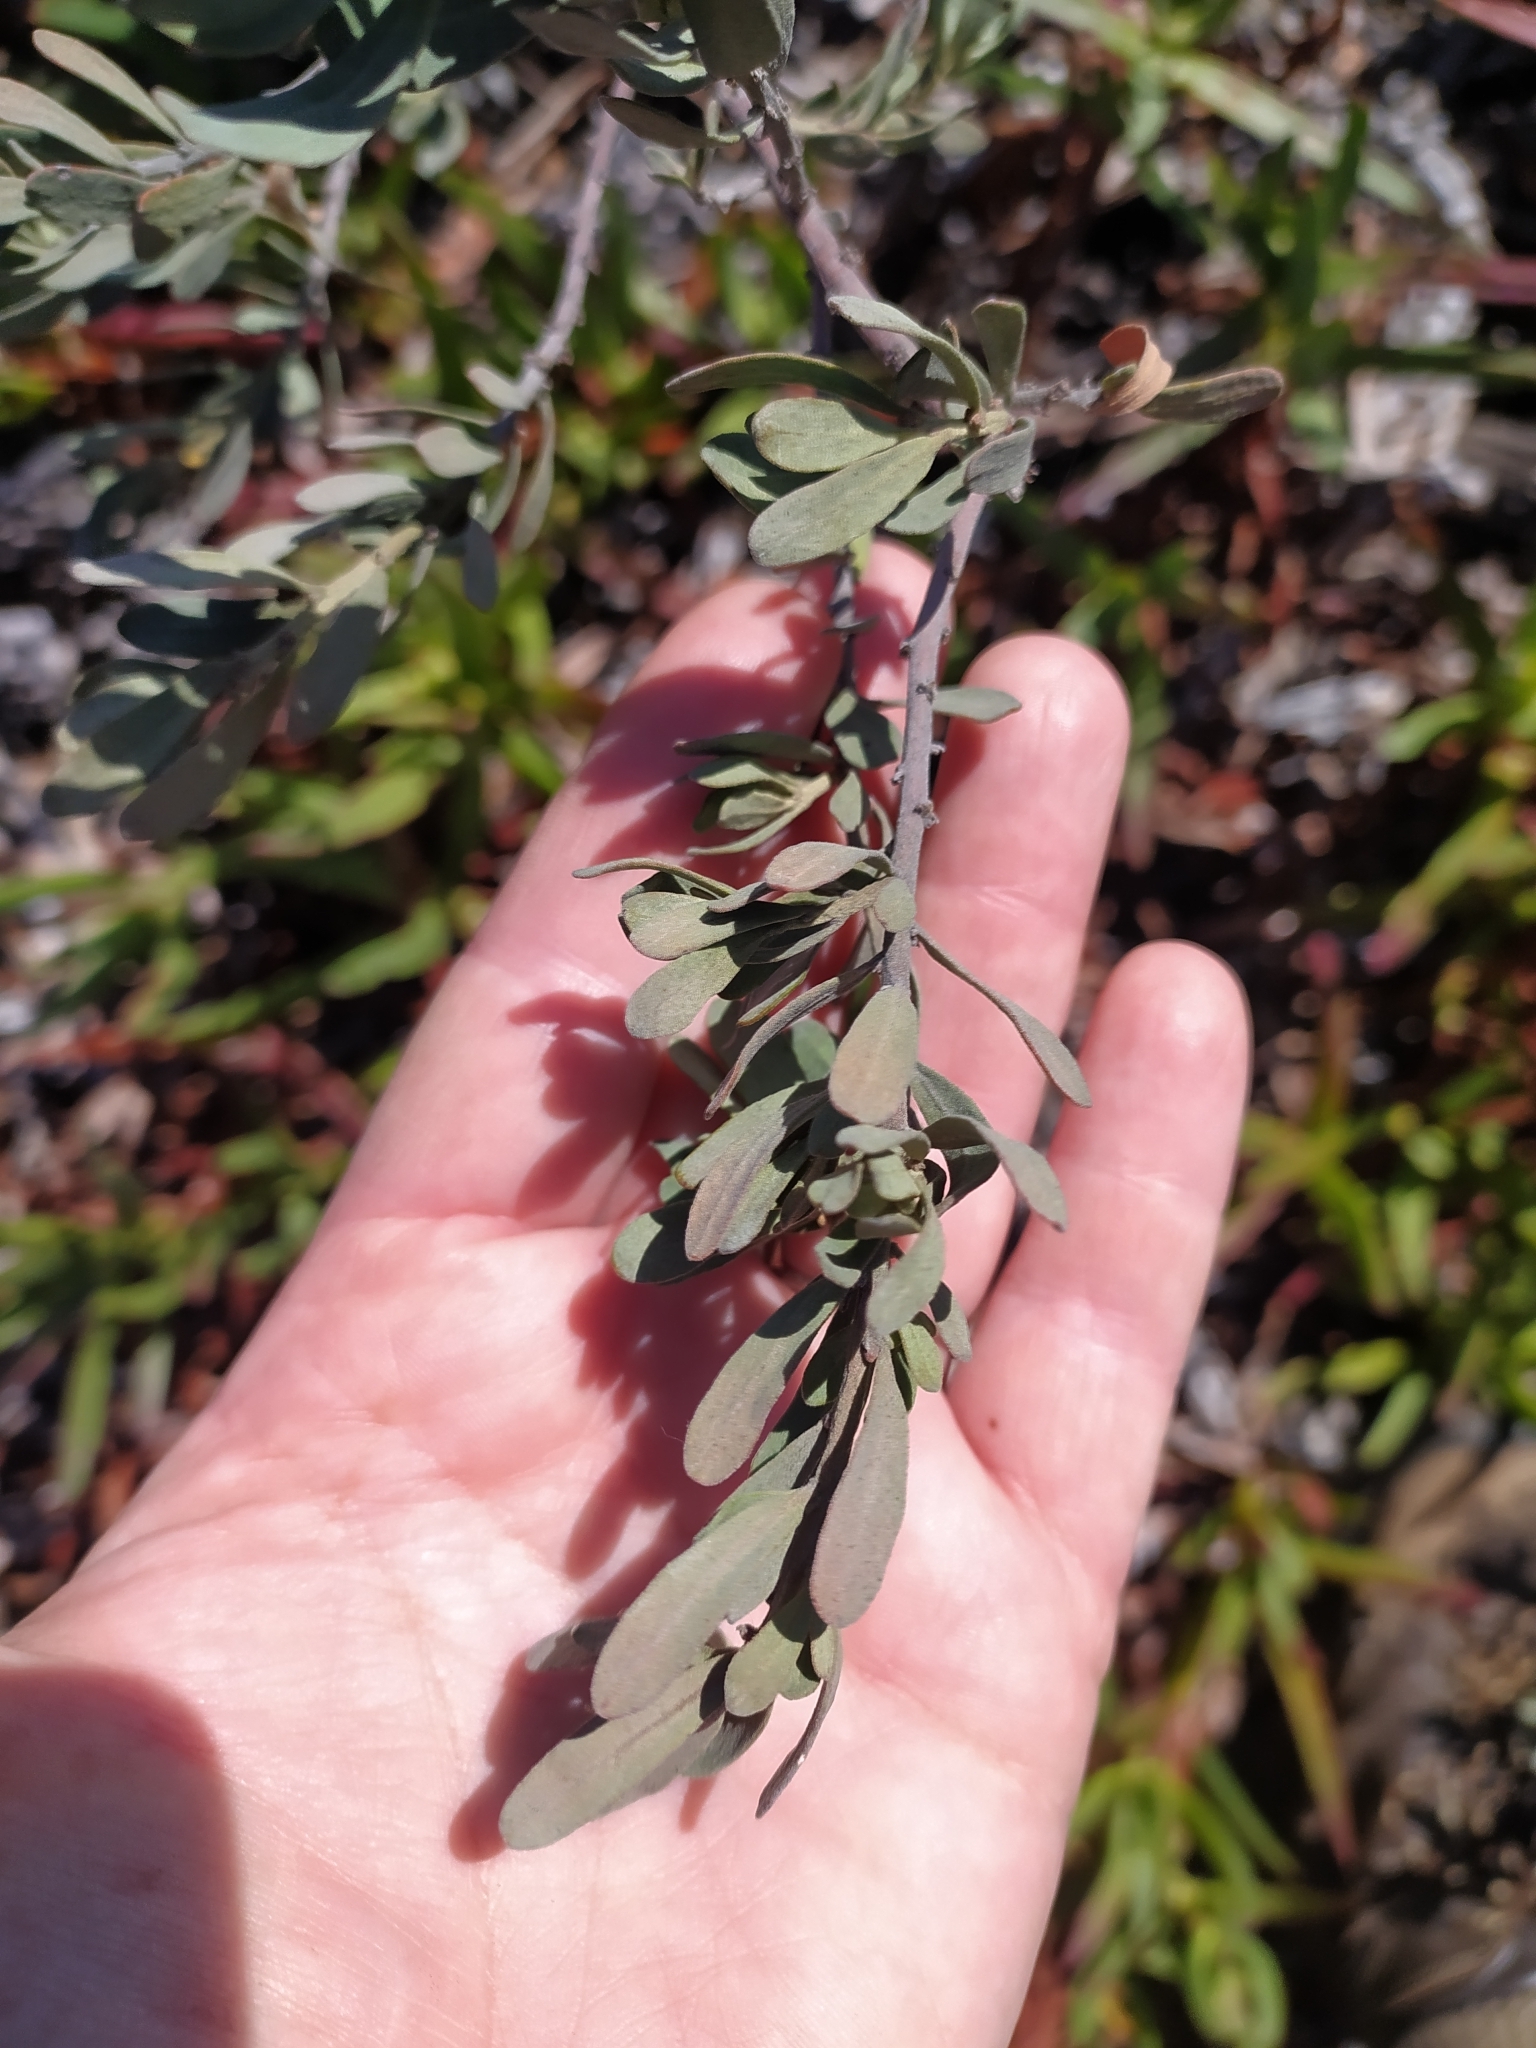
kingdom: Plantae
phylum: Tracheophyta
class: Magnoliopsida
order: Malpighiales
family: Peraceae
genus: Clutia
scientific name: Clutia daphnoides
